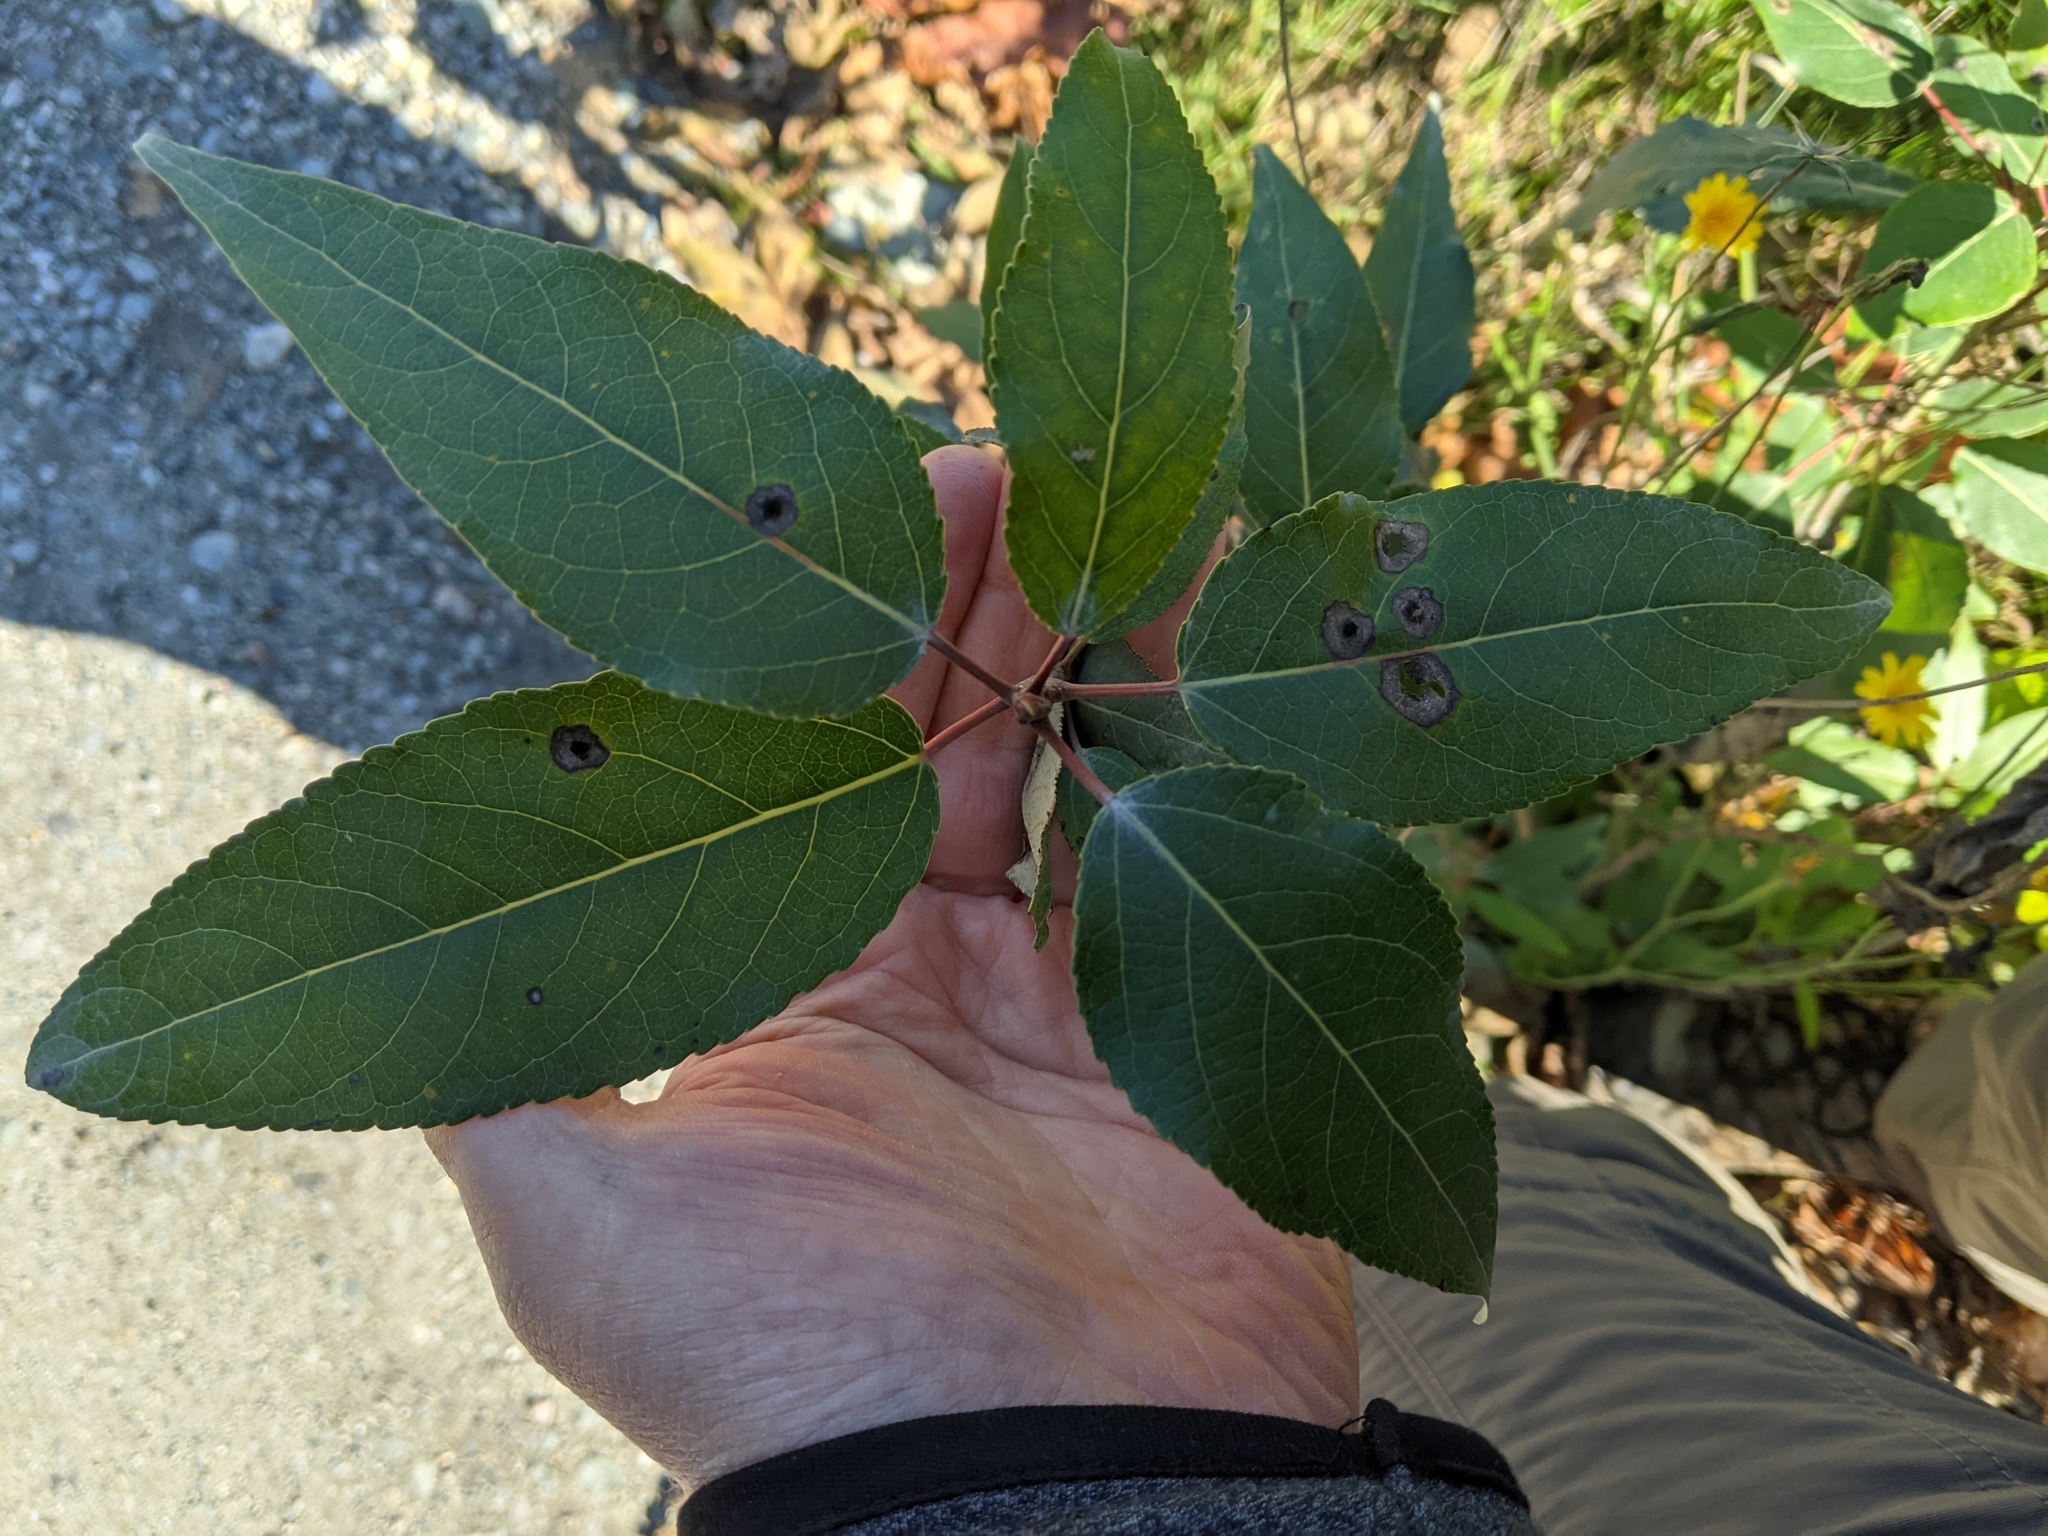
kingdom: Plantae
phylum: Tracheophyta
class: Magnoliopsida
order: Malpighiales
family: Salicaceae
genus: Populus
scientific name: Populus trichocarpa
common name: Black cottonwood
